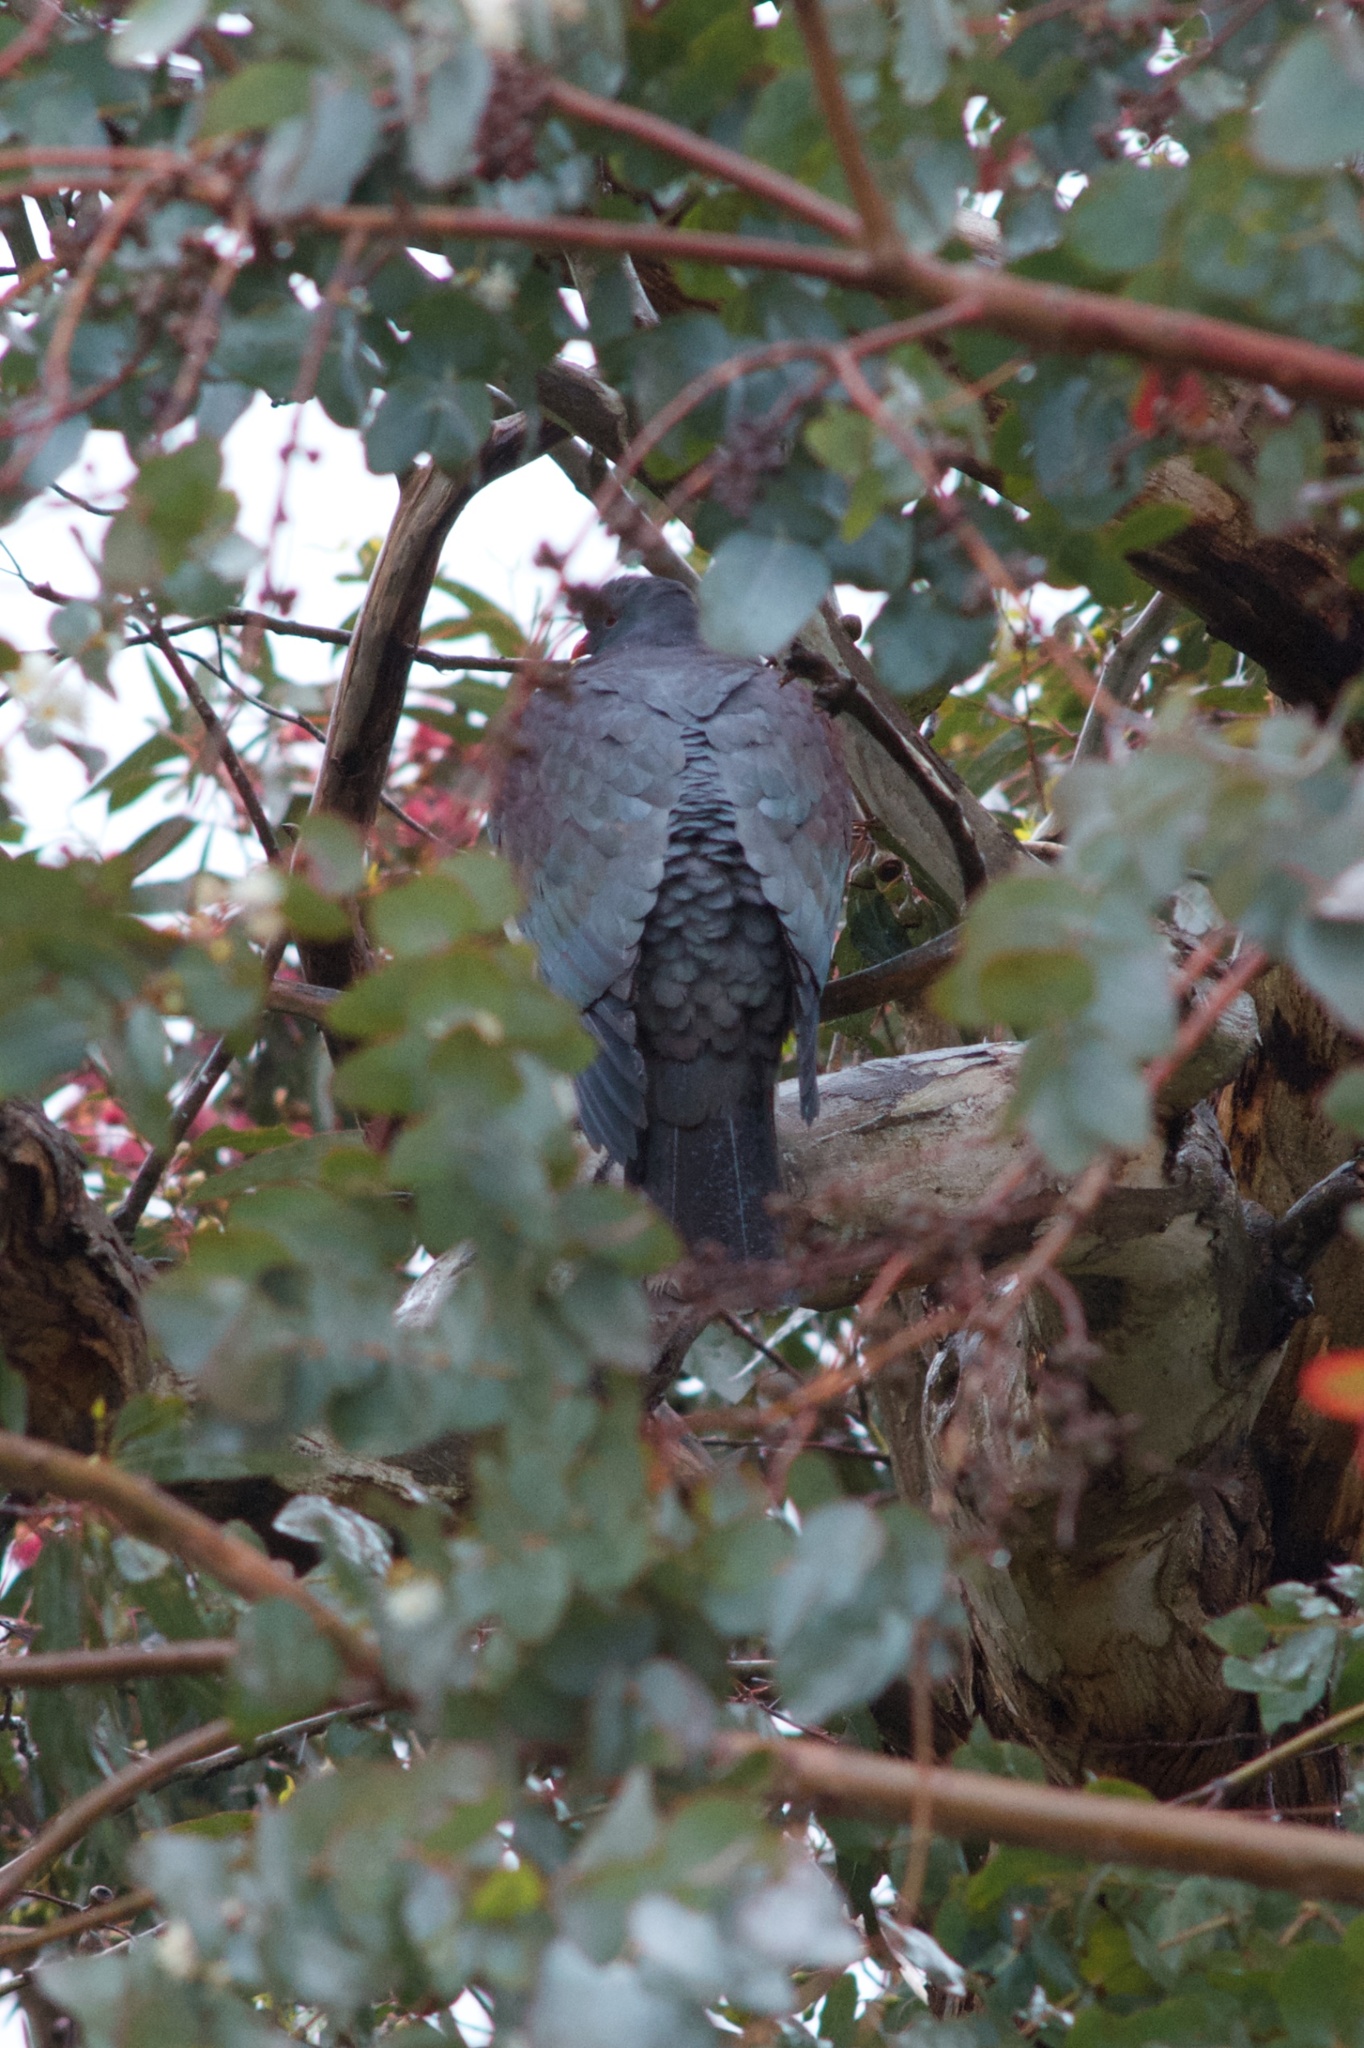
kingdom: Animalia
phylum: Chordata
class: Aves
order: Columbiformes
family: Columbidae
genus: Hemiphaga
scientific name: Hemiphaga novaeseelandiae
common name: New zealand pigeon
